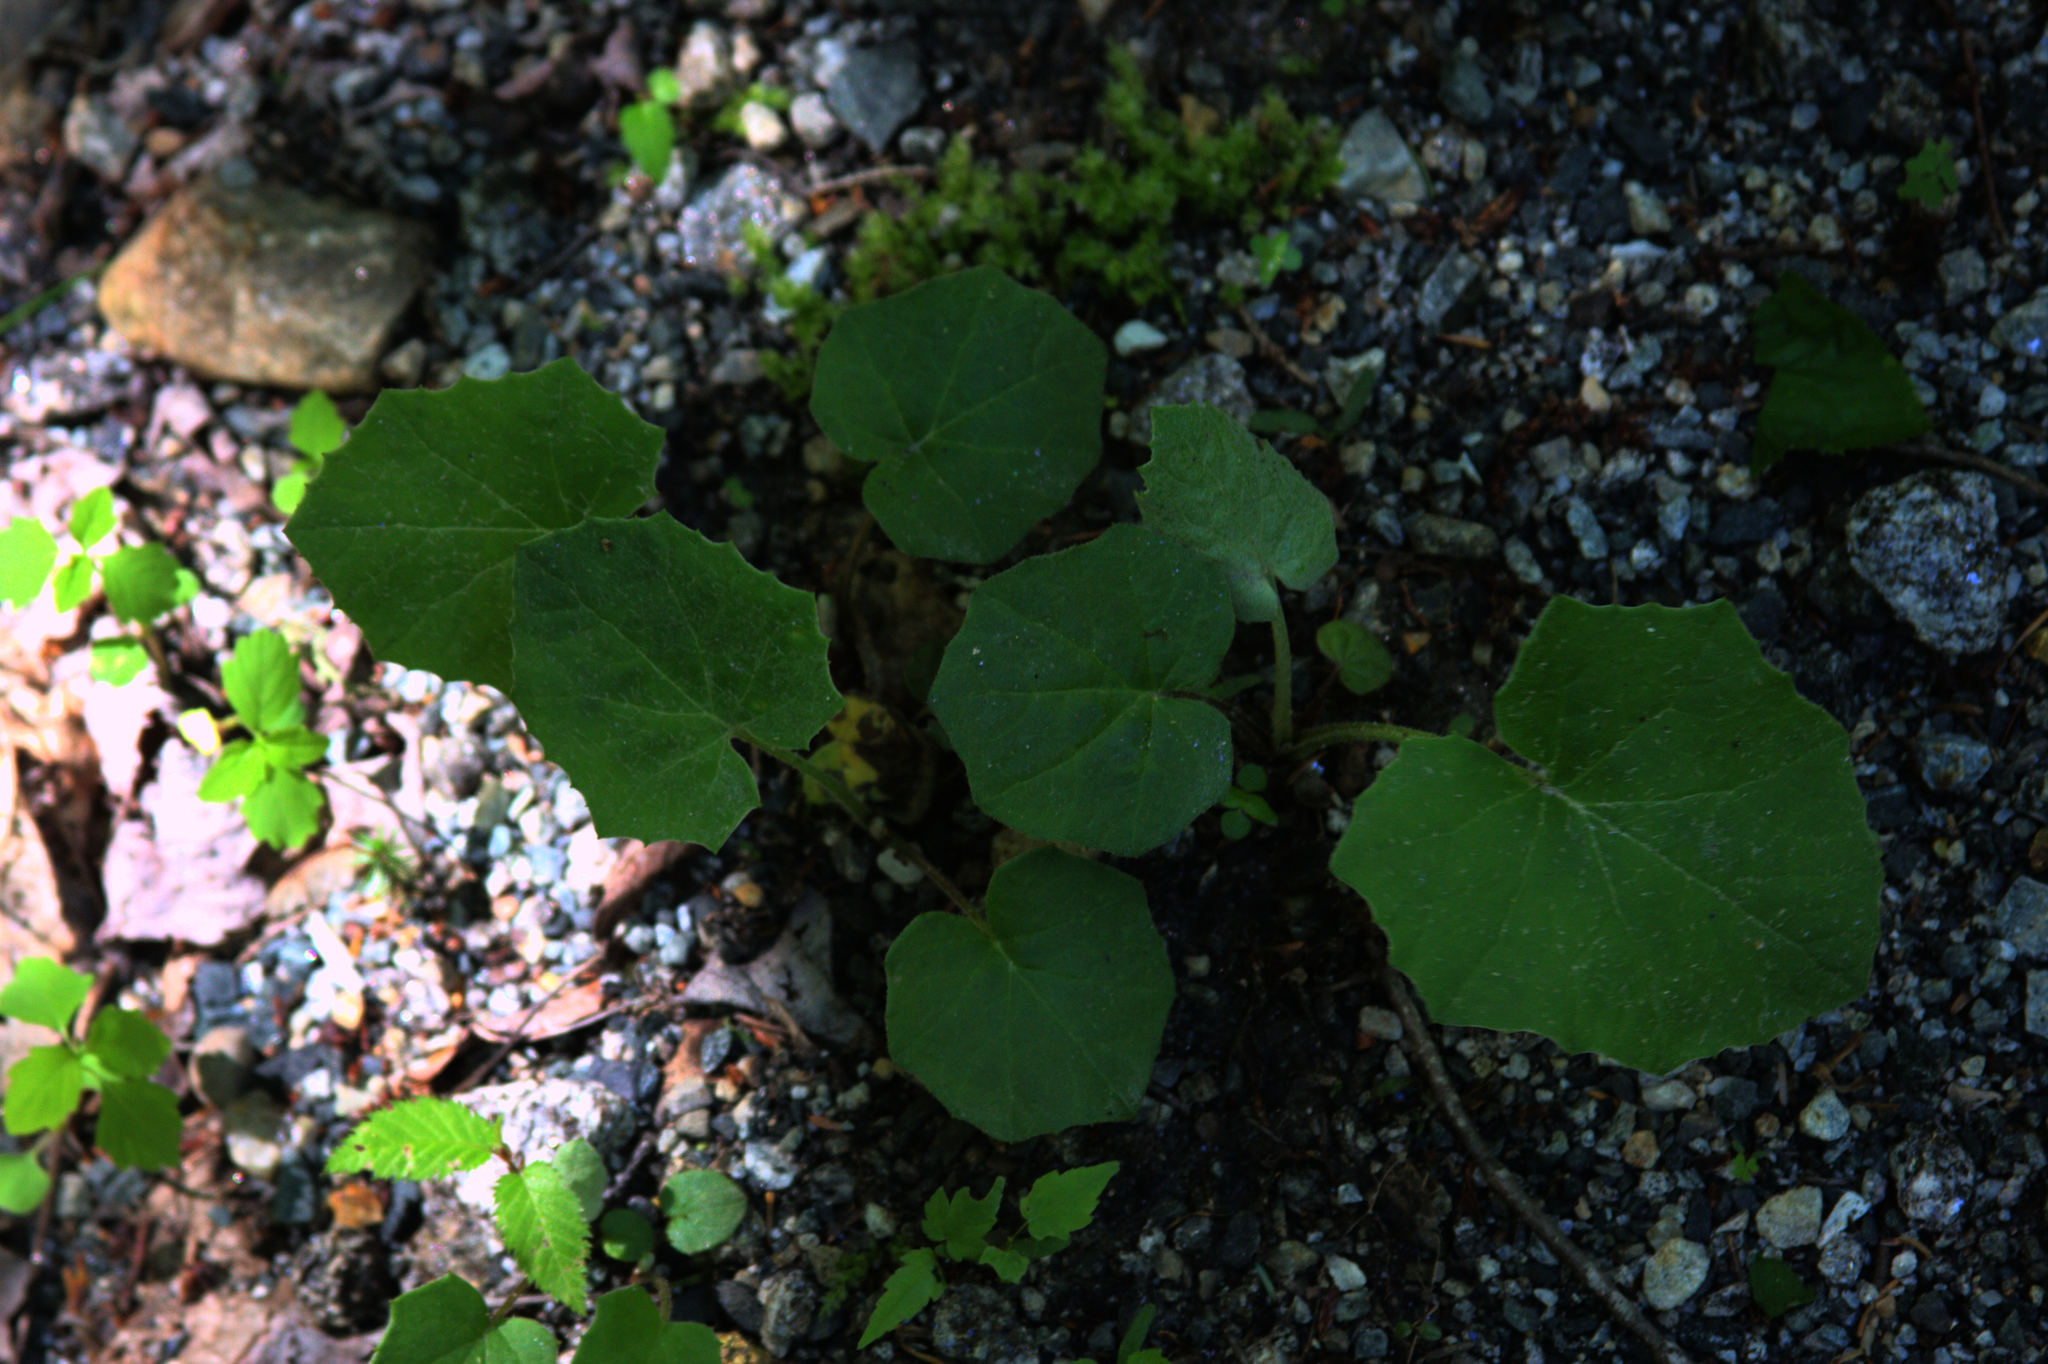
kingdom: Plantae
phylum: Tracheophyta
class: Magnoliopsida
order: Asterales
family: Asteraceae
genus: Tussilago
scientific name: Tussilago farfara
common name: Coltsfoot
